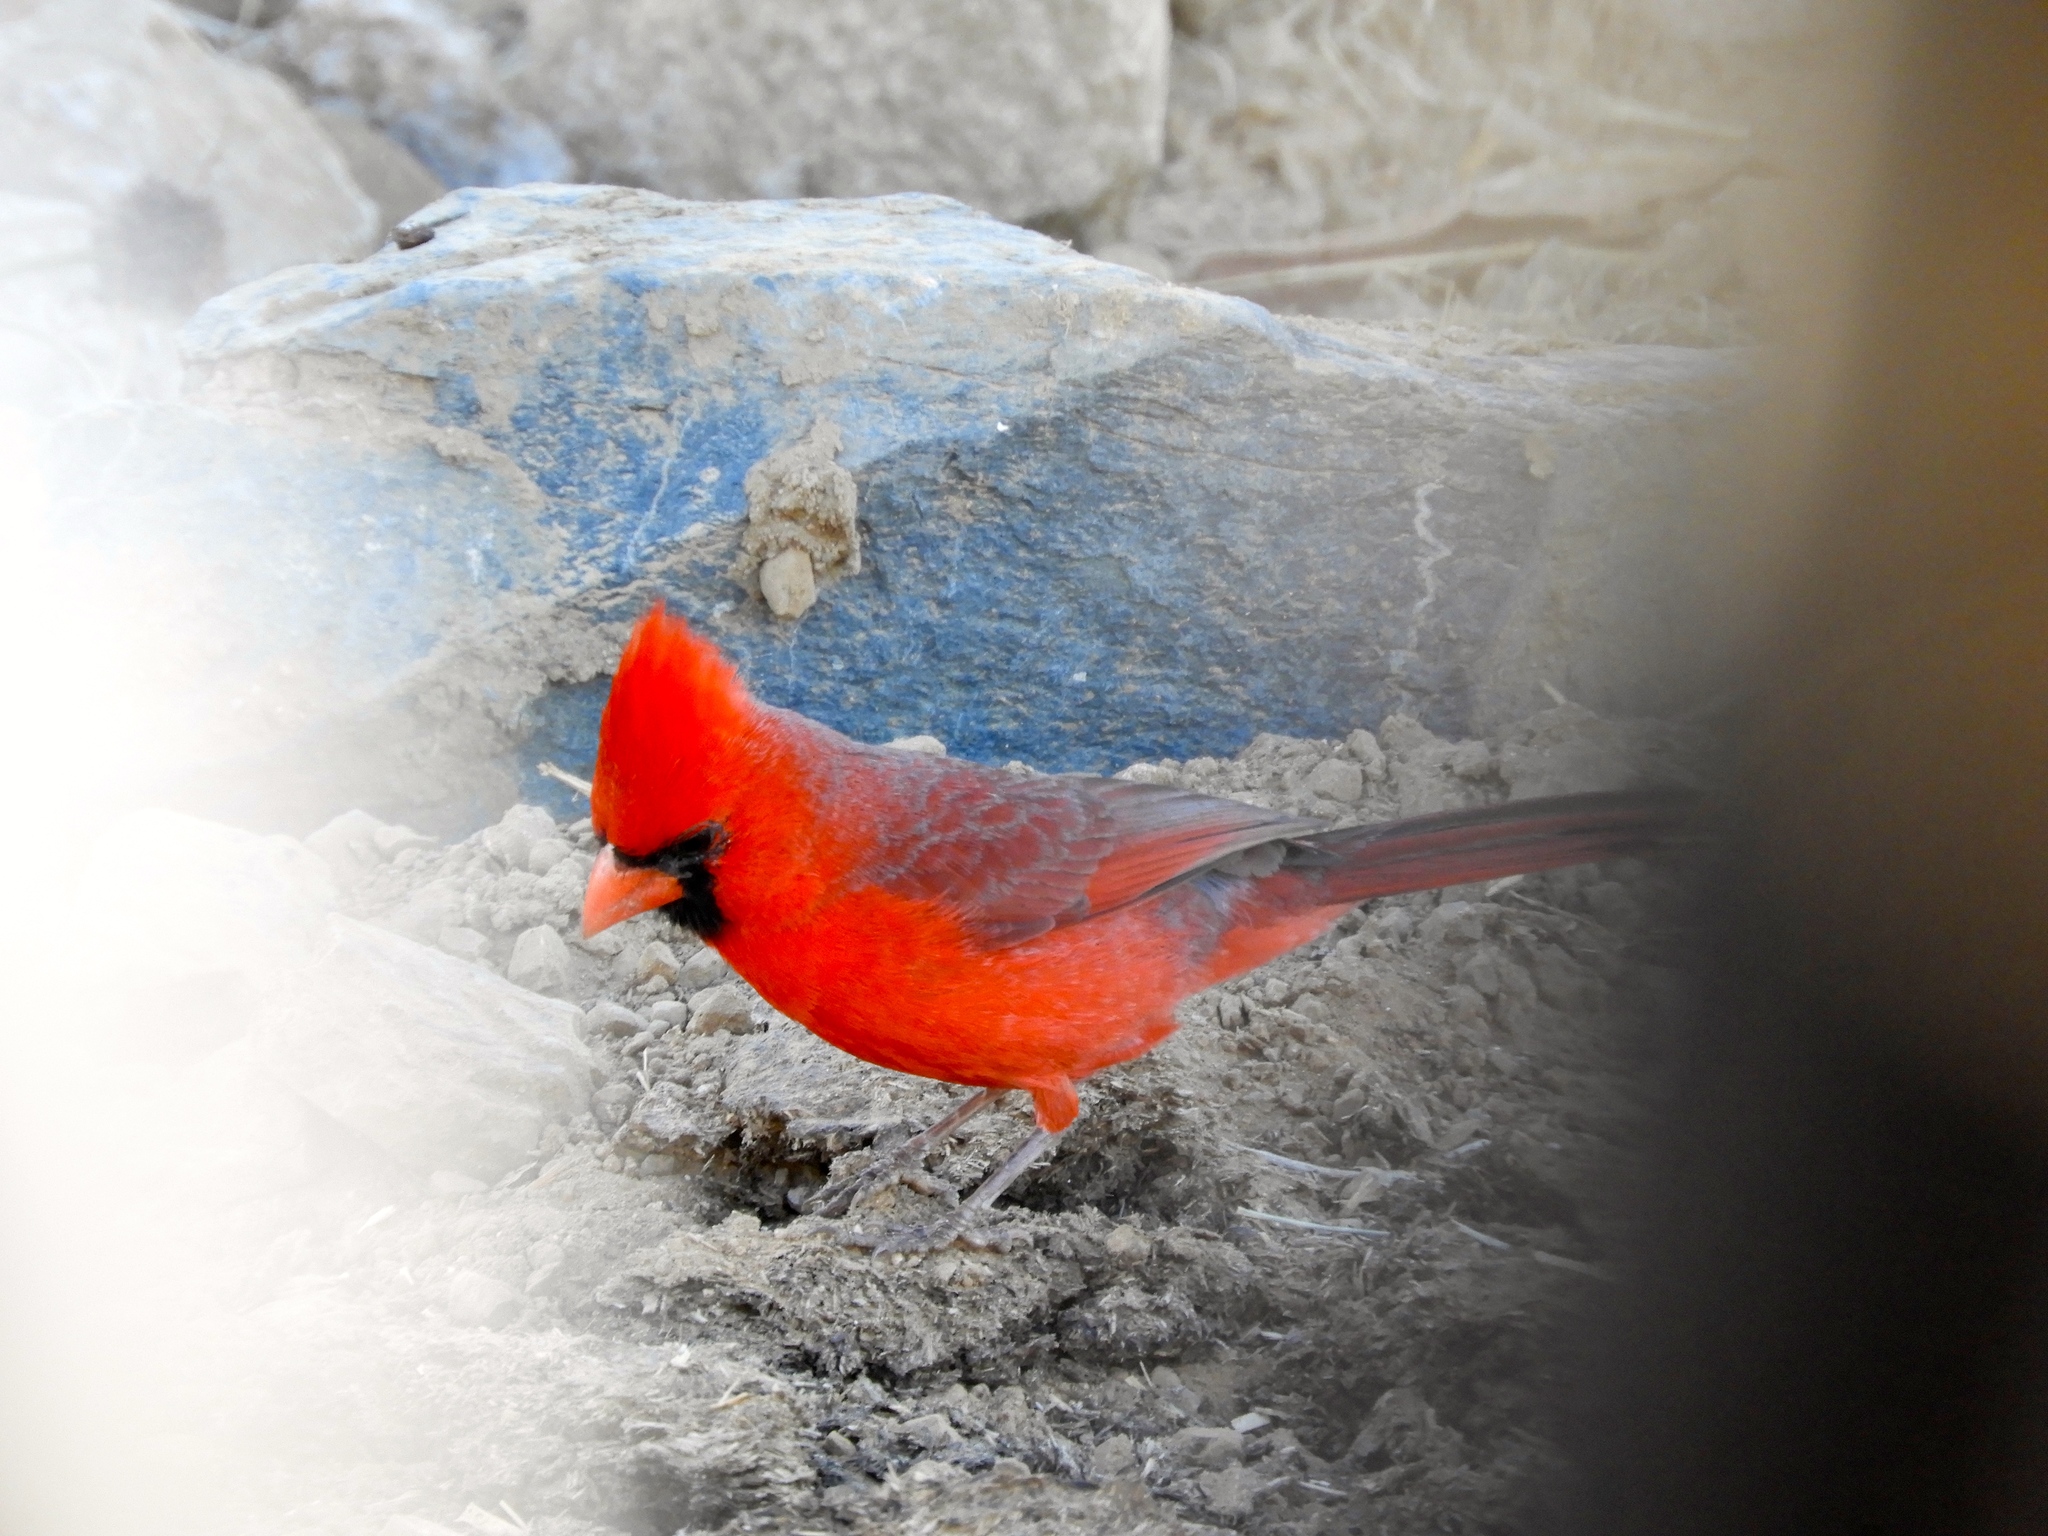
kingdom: Animalia
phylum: Chordata
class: Aves
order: Passeriformes
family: Cardinalidae
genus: Cardinalis
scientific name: Cardinalis cardinalis
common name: Northern cardinal
